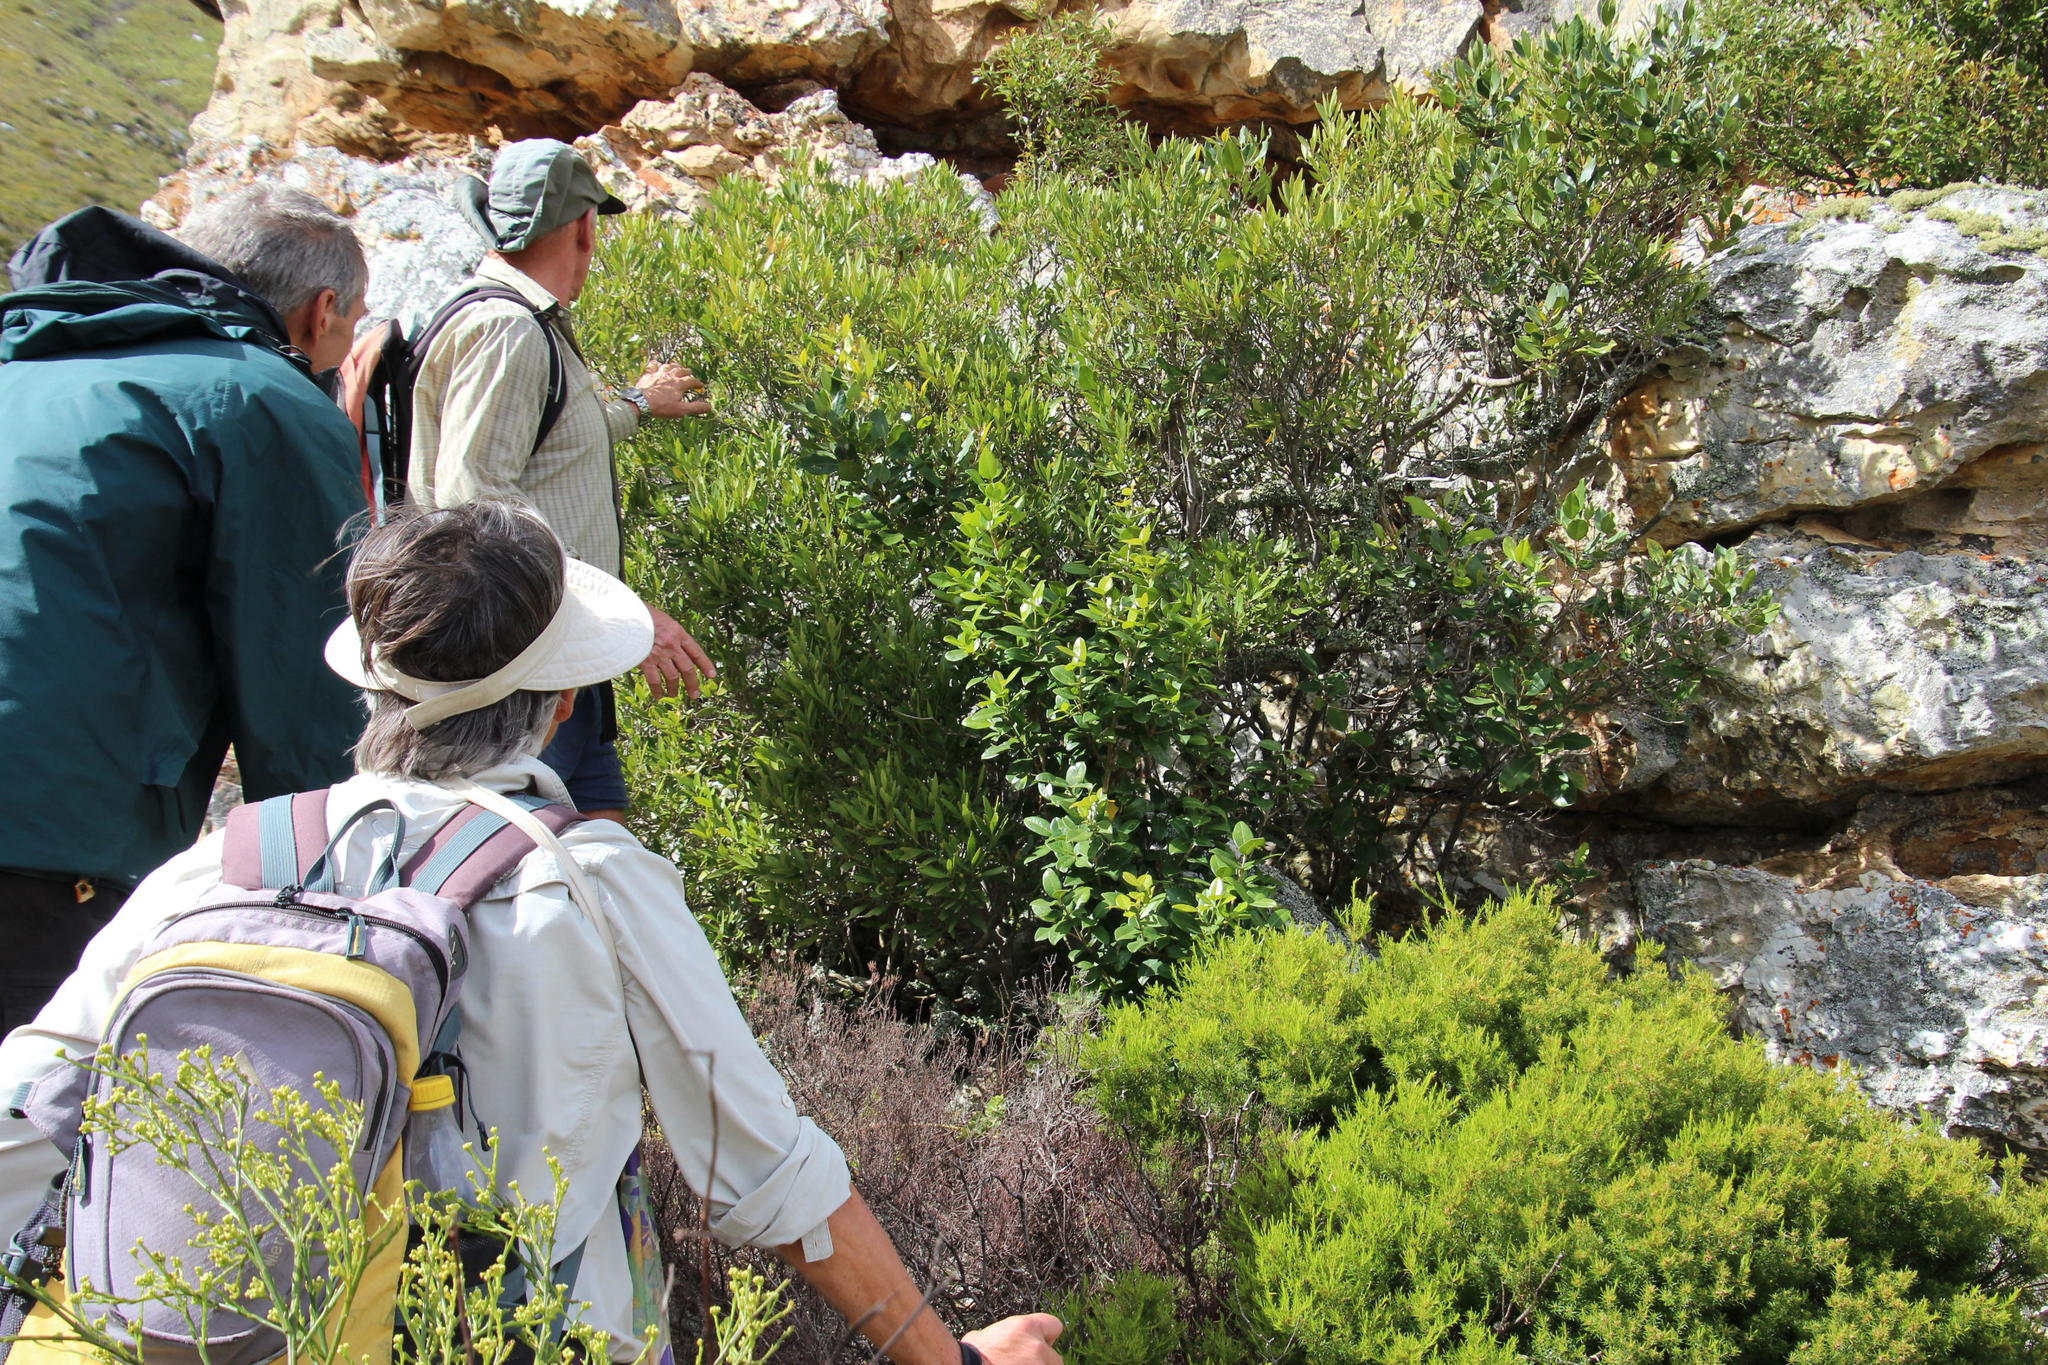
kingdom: Plantae
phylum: Tracheophyta
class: Magnoliopsida
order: Lamiales
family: Oleaceae
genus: Noronhia
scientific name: Noronhia foveolata
